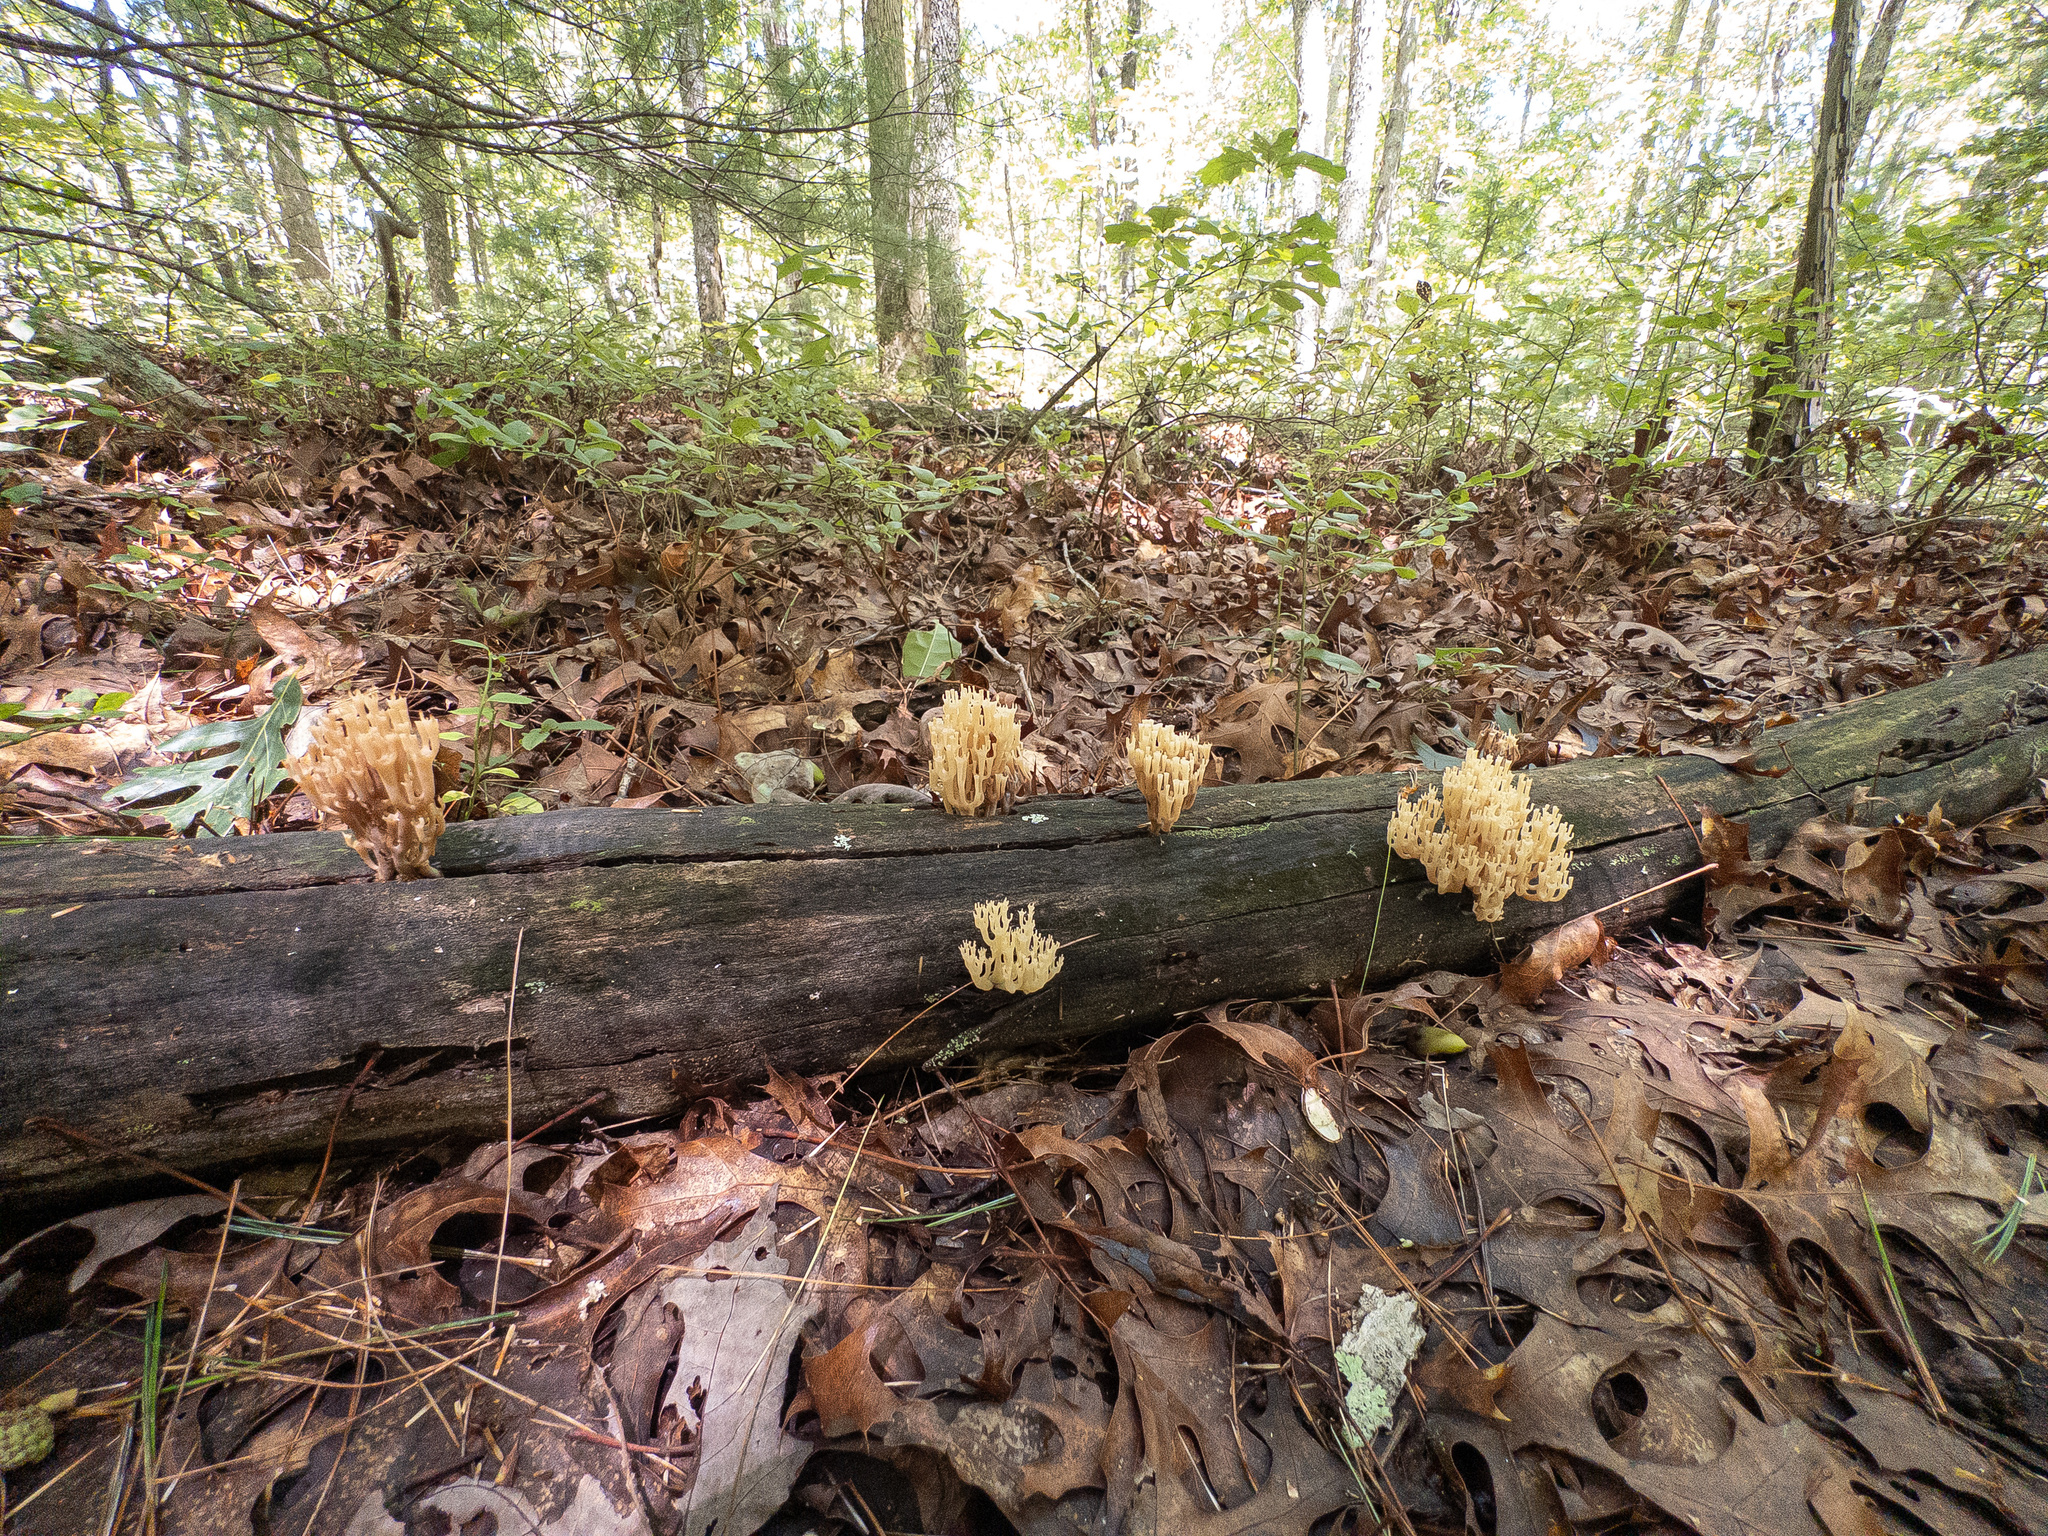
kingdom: Fungi
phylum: Basidiomycota
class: Agaricomycetes
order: Russulales
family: Auriscalpiaceae
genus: Artomyces
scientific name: Artomyces pyxidatus
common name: Crown-tipped coral fungus
